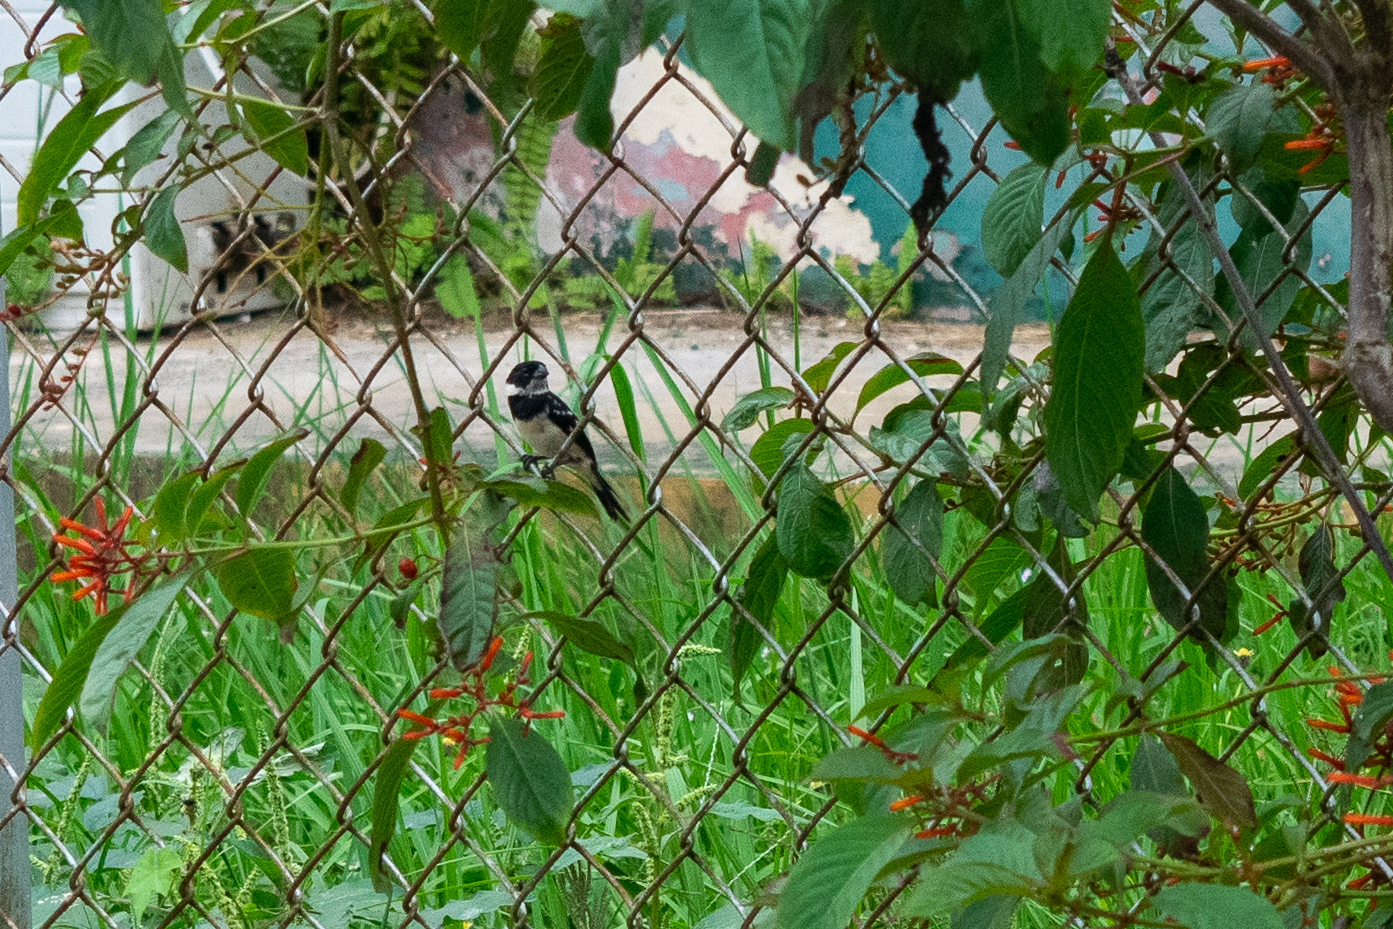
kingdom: Animalia
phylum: Chordata
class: Aves
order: Passeriformes
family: Thraupidae
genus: Sporophila
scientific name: Sporophila morelleti
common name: Morelet's seedeater
